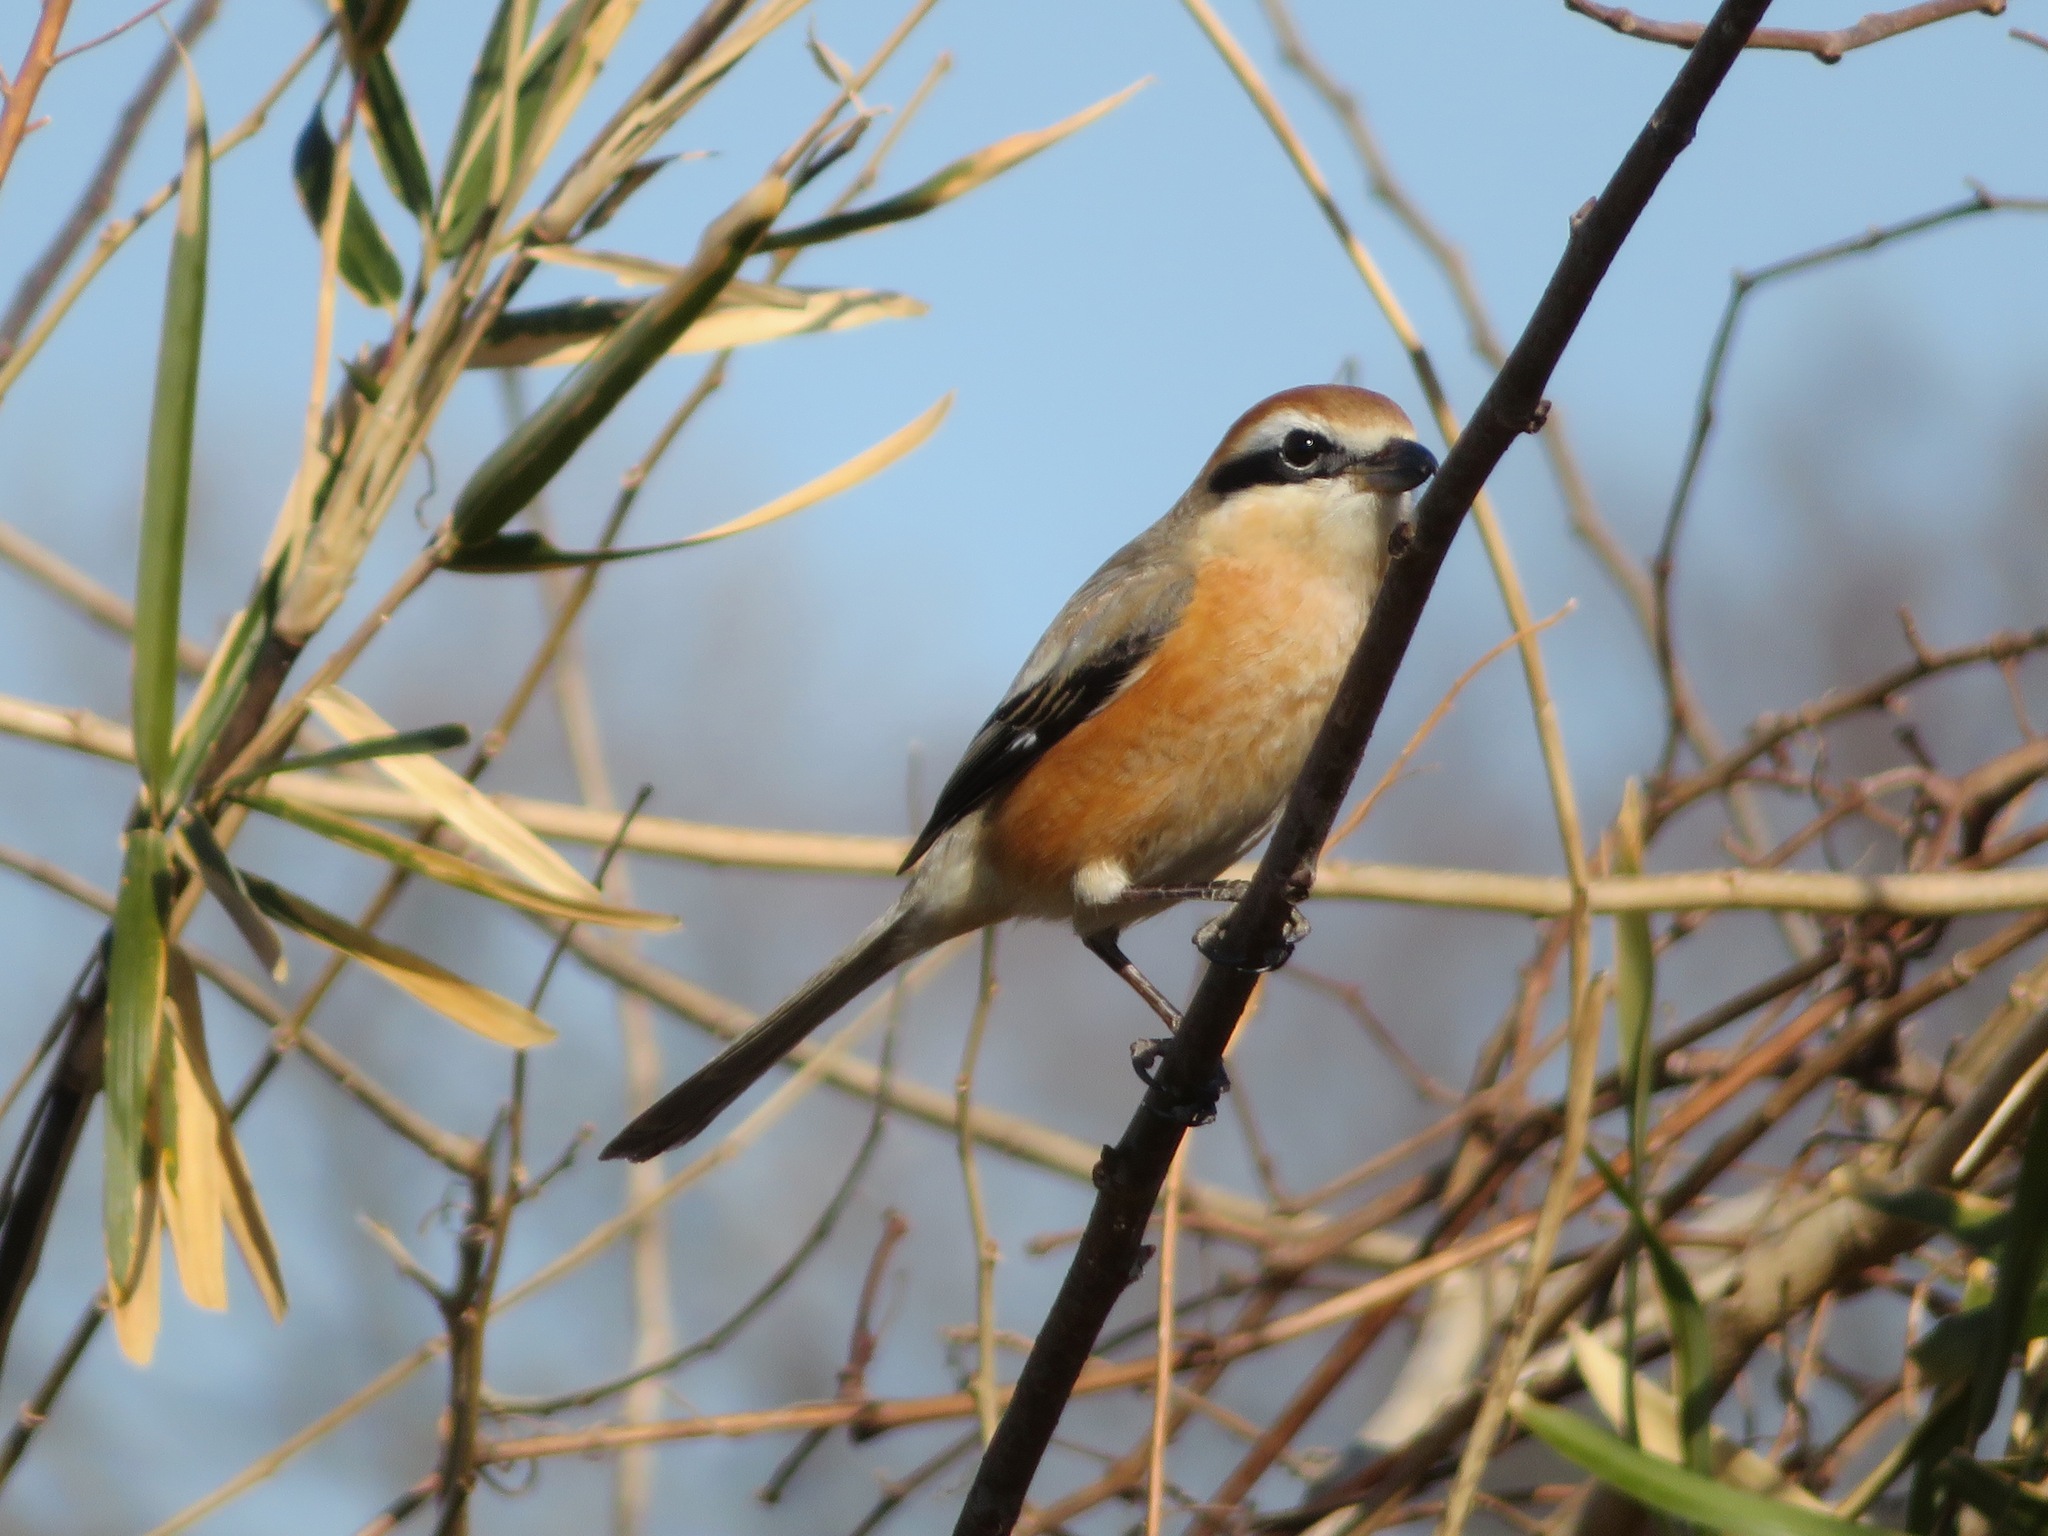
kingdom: Animalia
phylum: Chordata
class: Aves
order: Passeriformes
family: Laniidae
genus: Lanius
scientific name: Lanius bucephalus
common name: Bull-headed shrike
